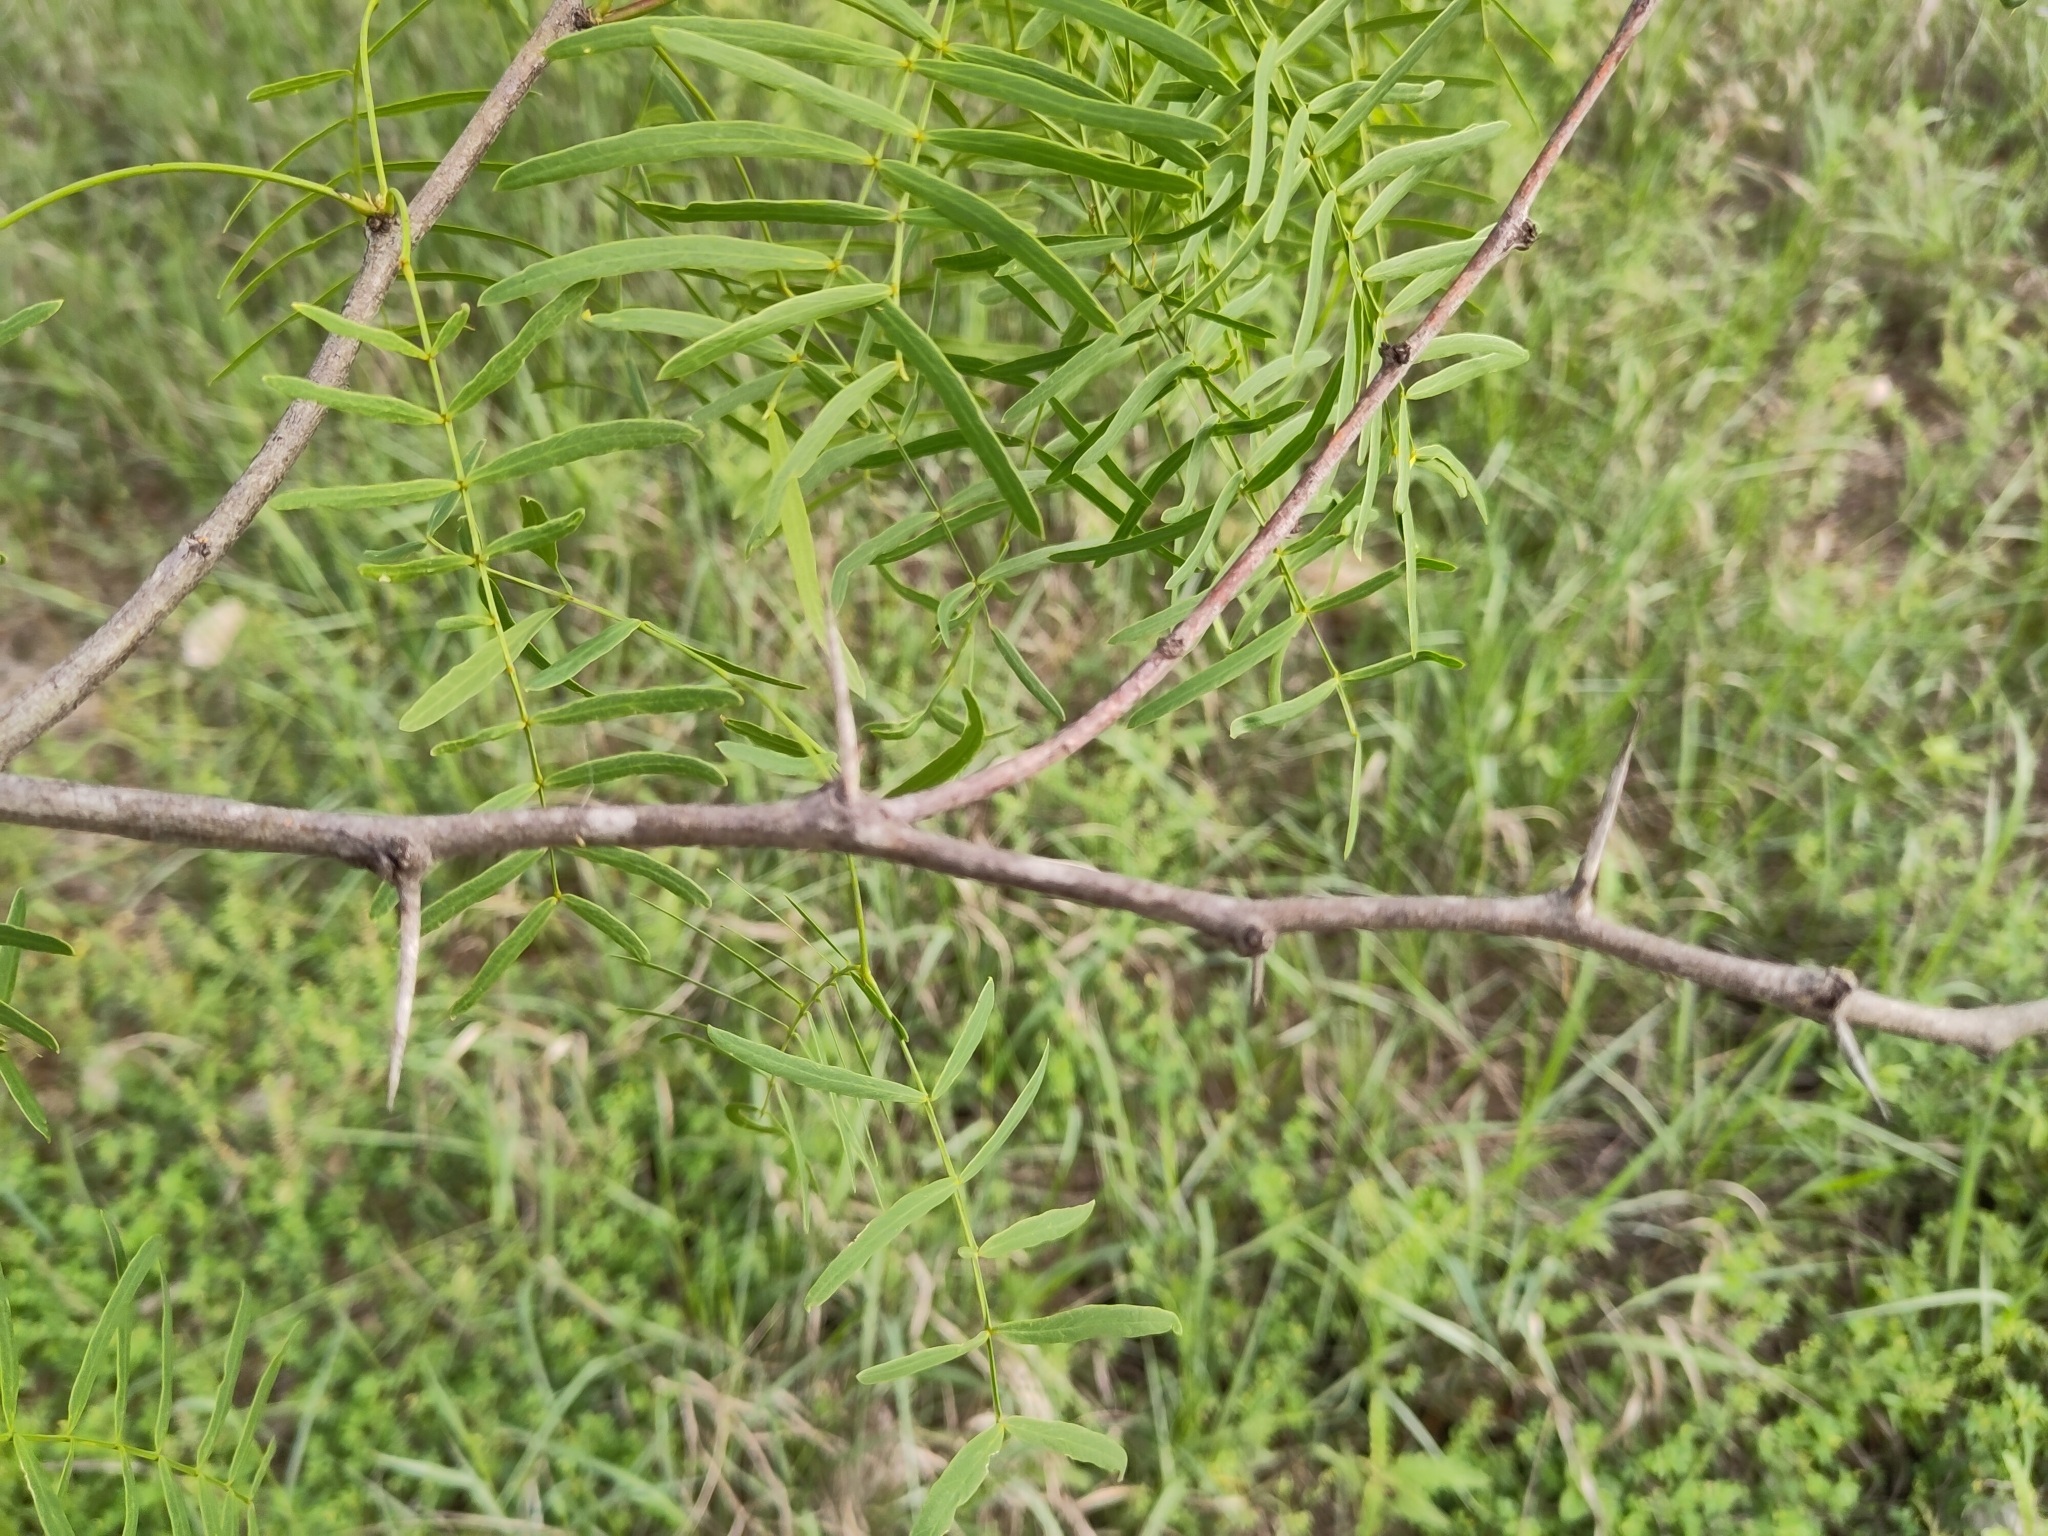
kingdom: Plantae
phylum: Tracheophyta
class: Magnoliopsida
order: Fabales
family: Fabaceae
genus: Prosopis
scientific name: Prosopis glandulosa
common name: Honey mesquite
